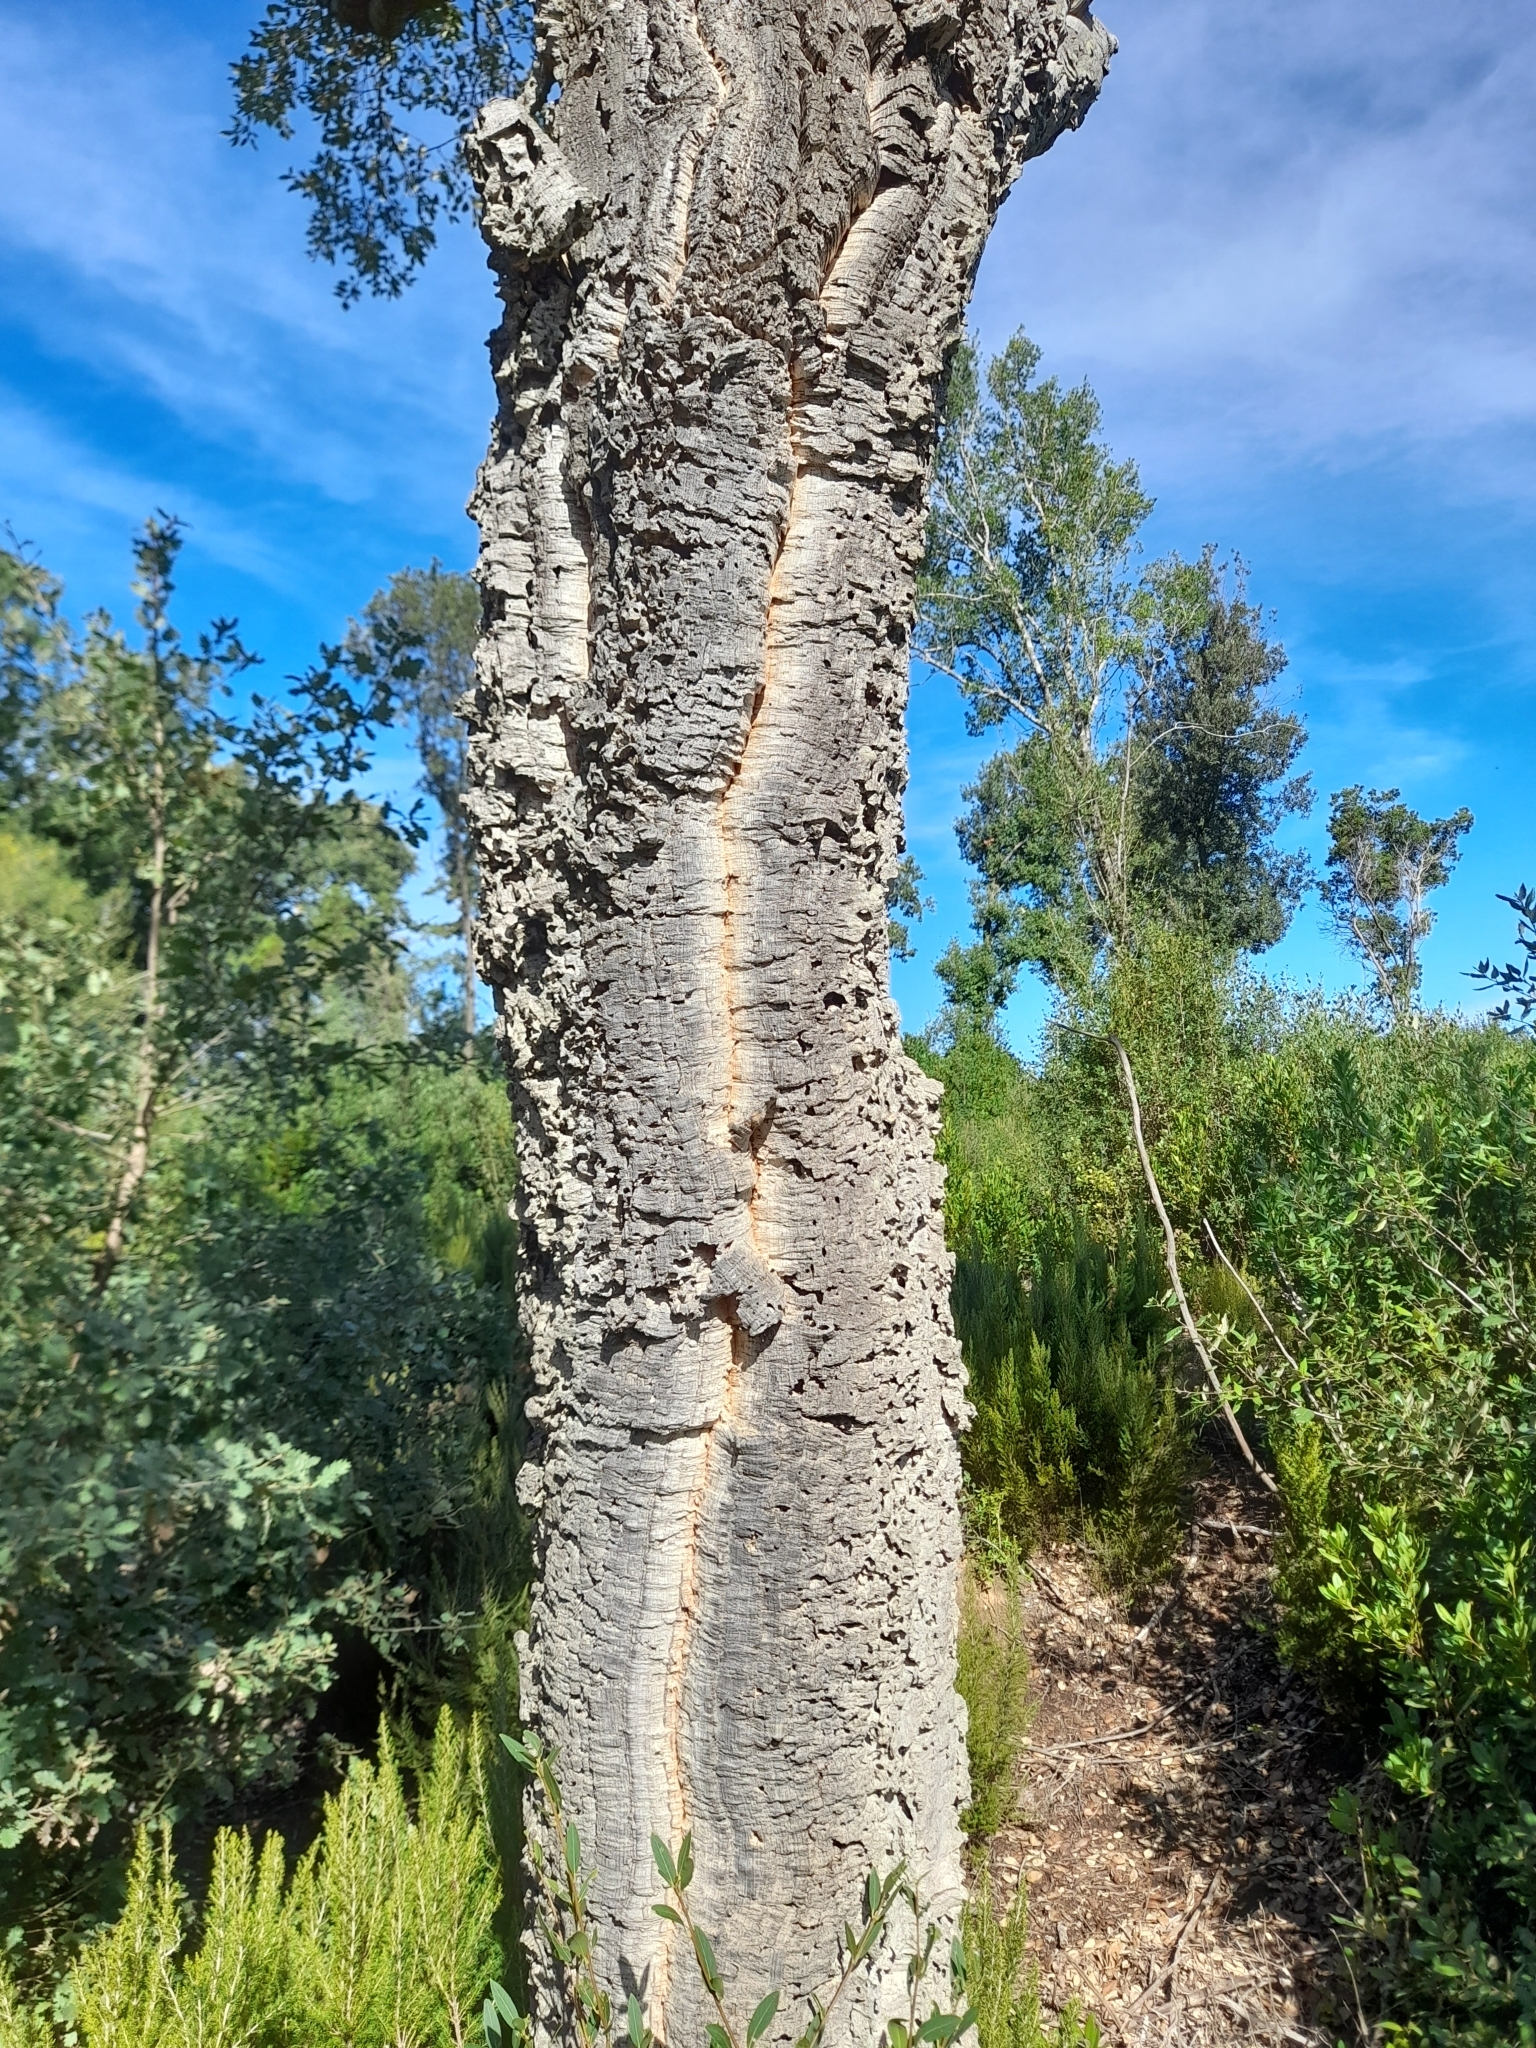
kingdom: Plantae
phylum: Tracheophyta
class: Magnoliopsida
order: Fagales
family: Fagaceae
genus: Quercus
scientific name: Quercus suber
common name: Cork oak
